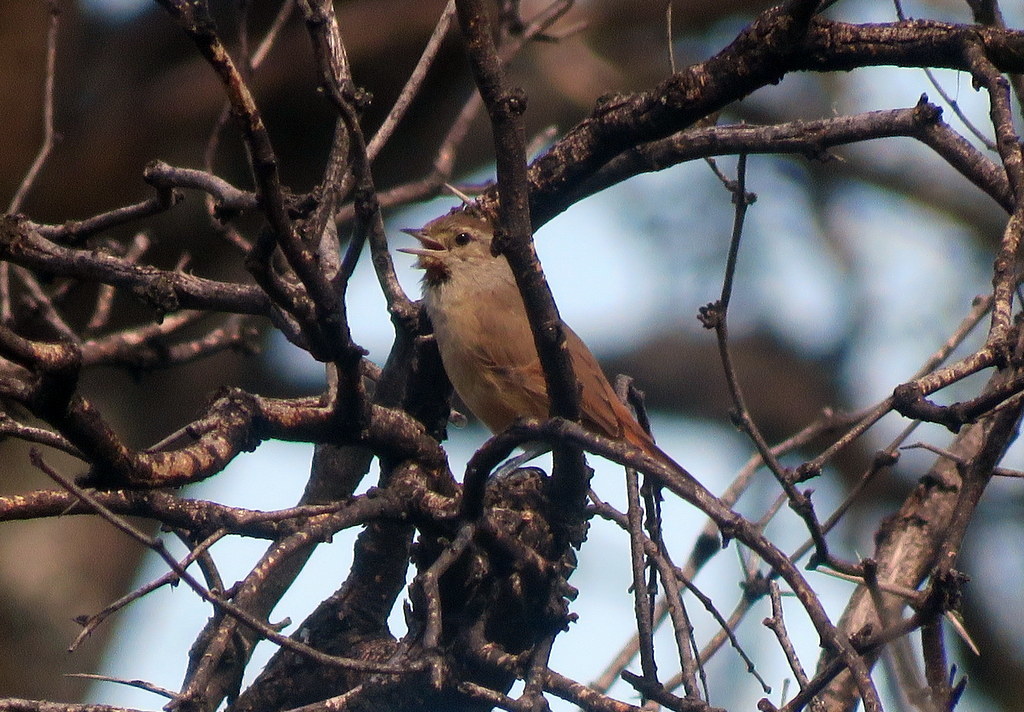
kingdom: Animalia
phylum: Chordata
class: Aves
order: Passeriformes
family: Furnariidae
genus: Asthenes
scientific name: Asthenes baeri
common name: Short-billed canastero
